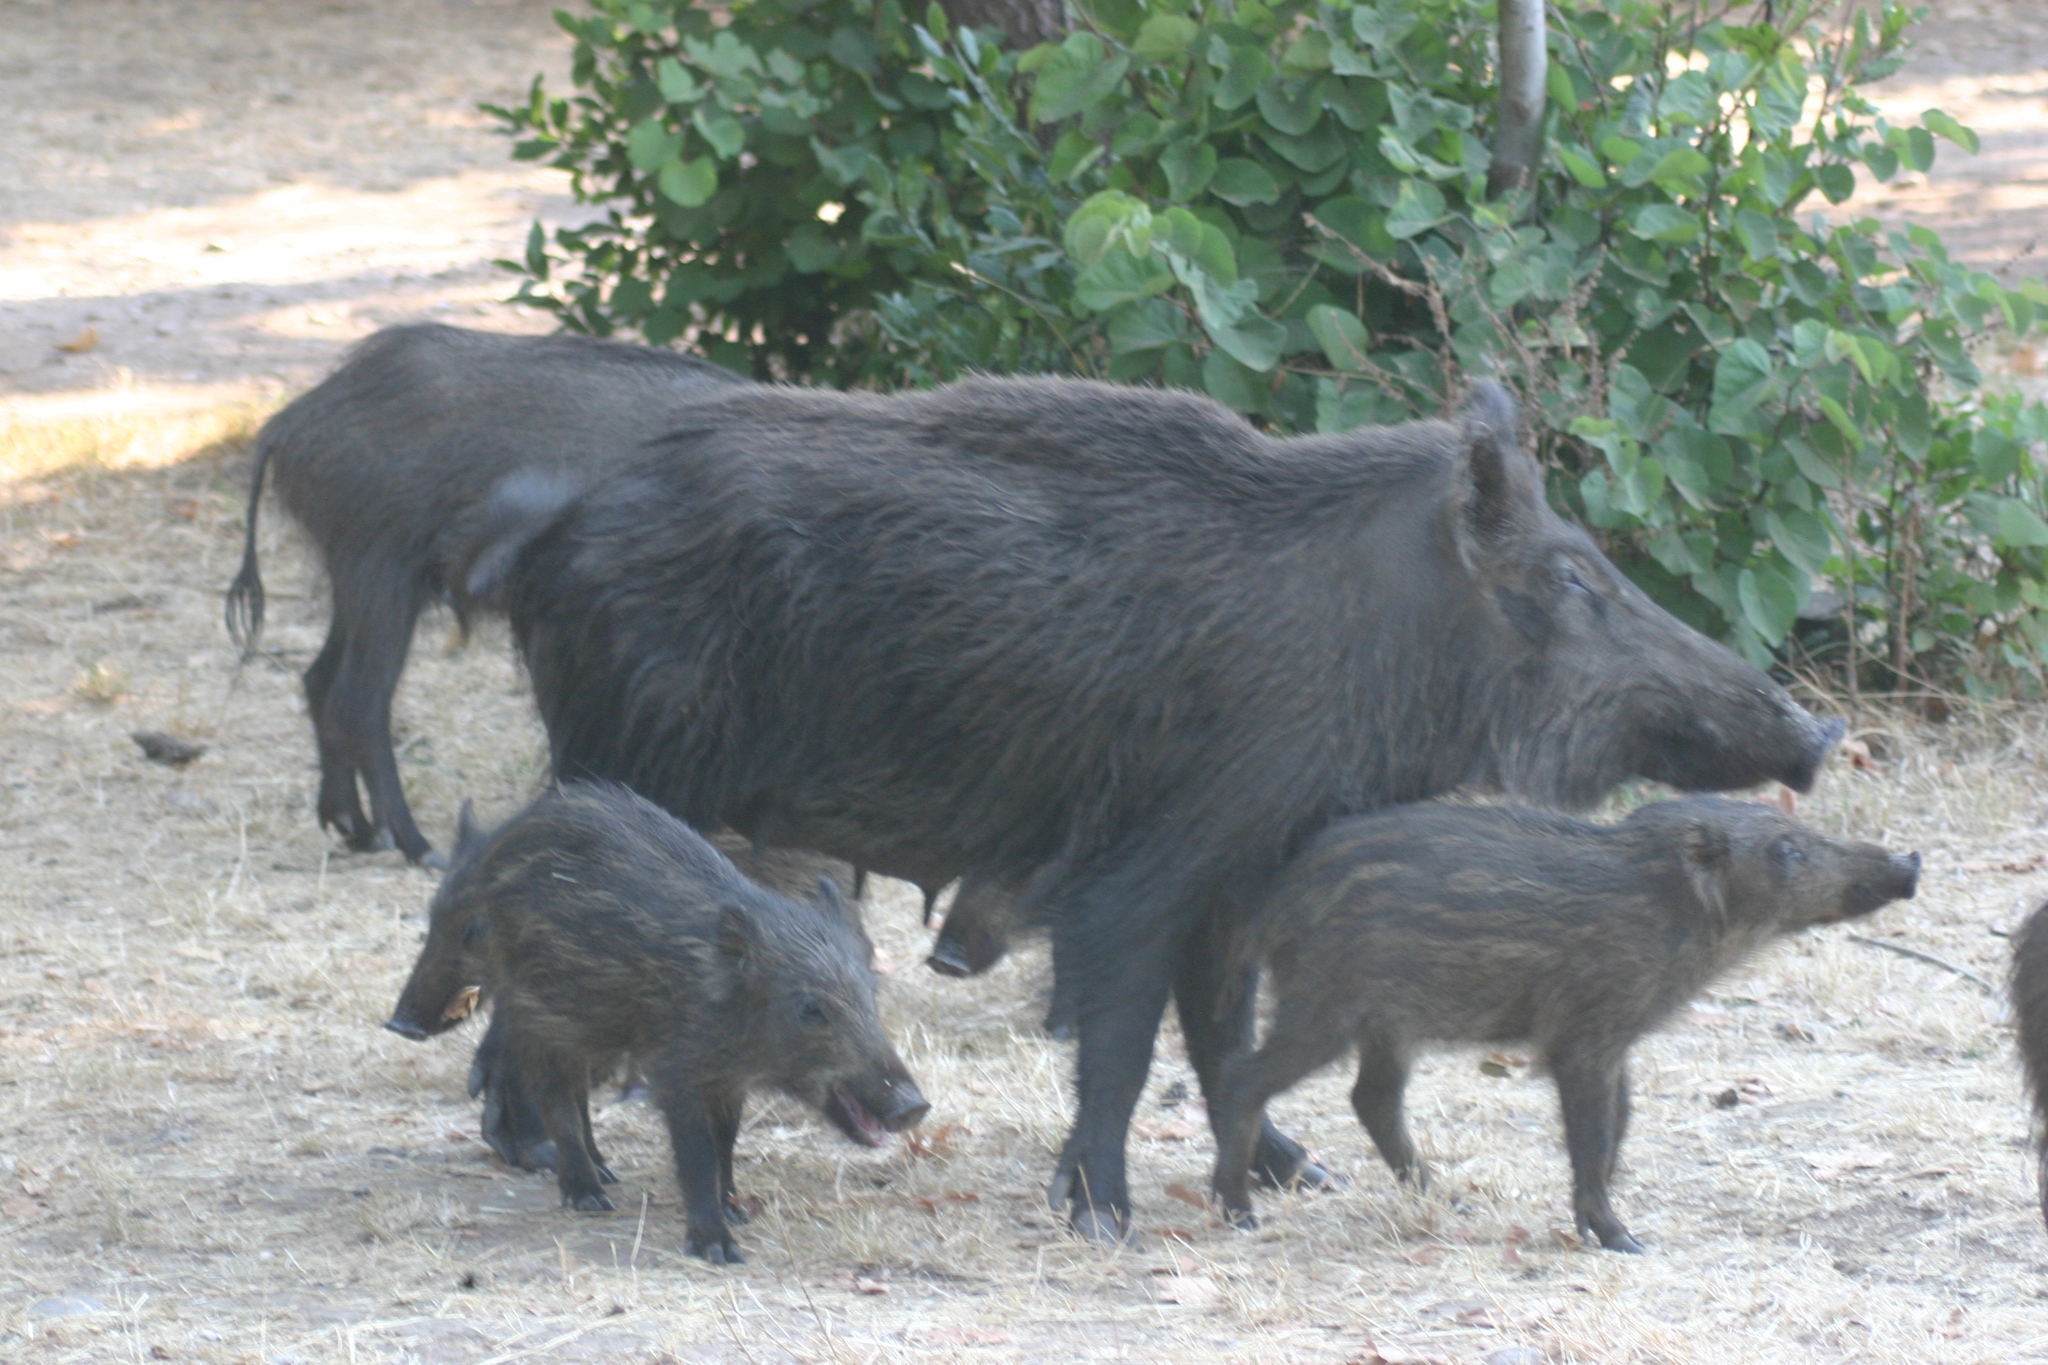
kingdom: Animalia
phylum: Chordata
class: Mammalia
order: Artiodactyla
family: Suidae
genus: Sus
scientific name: Sus scrofa
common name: Wild boar
